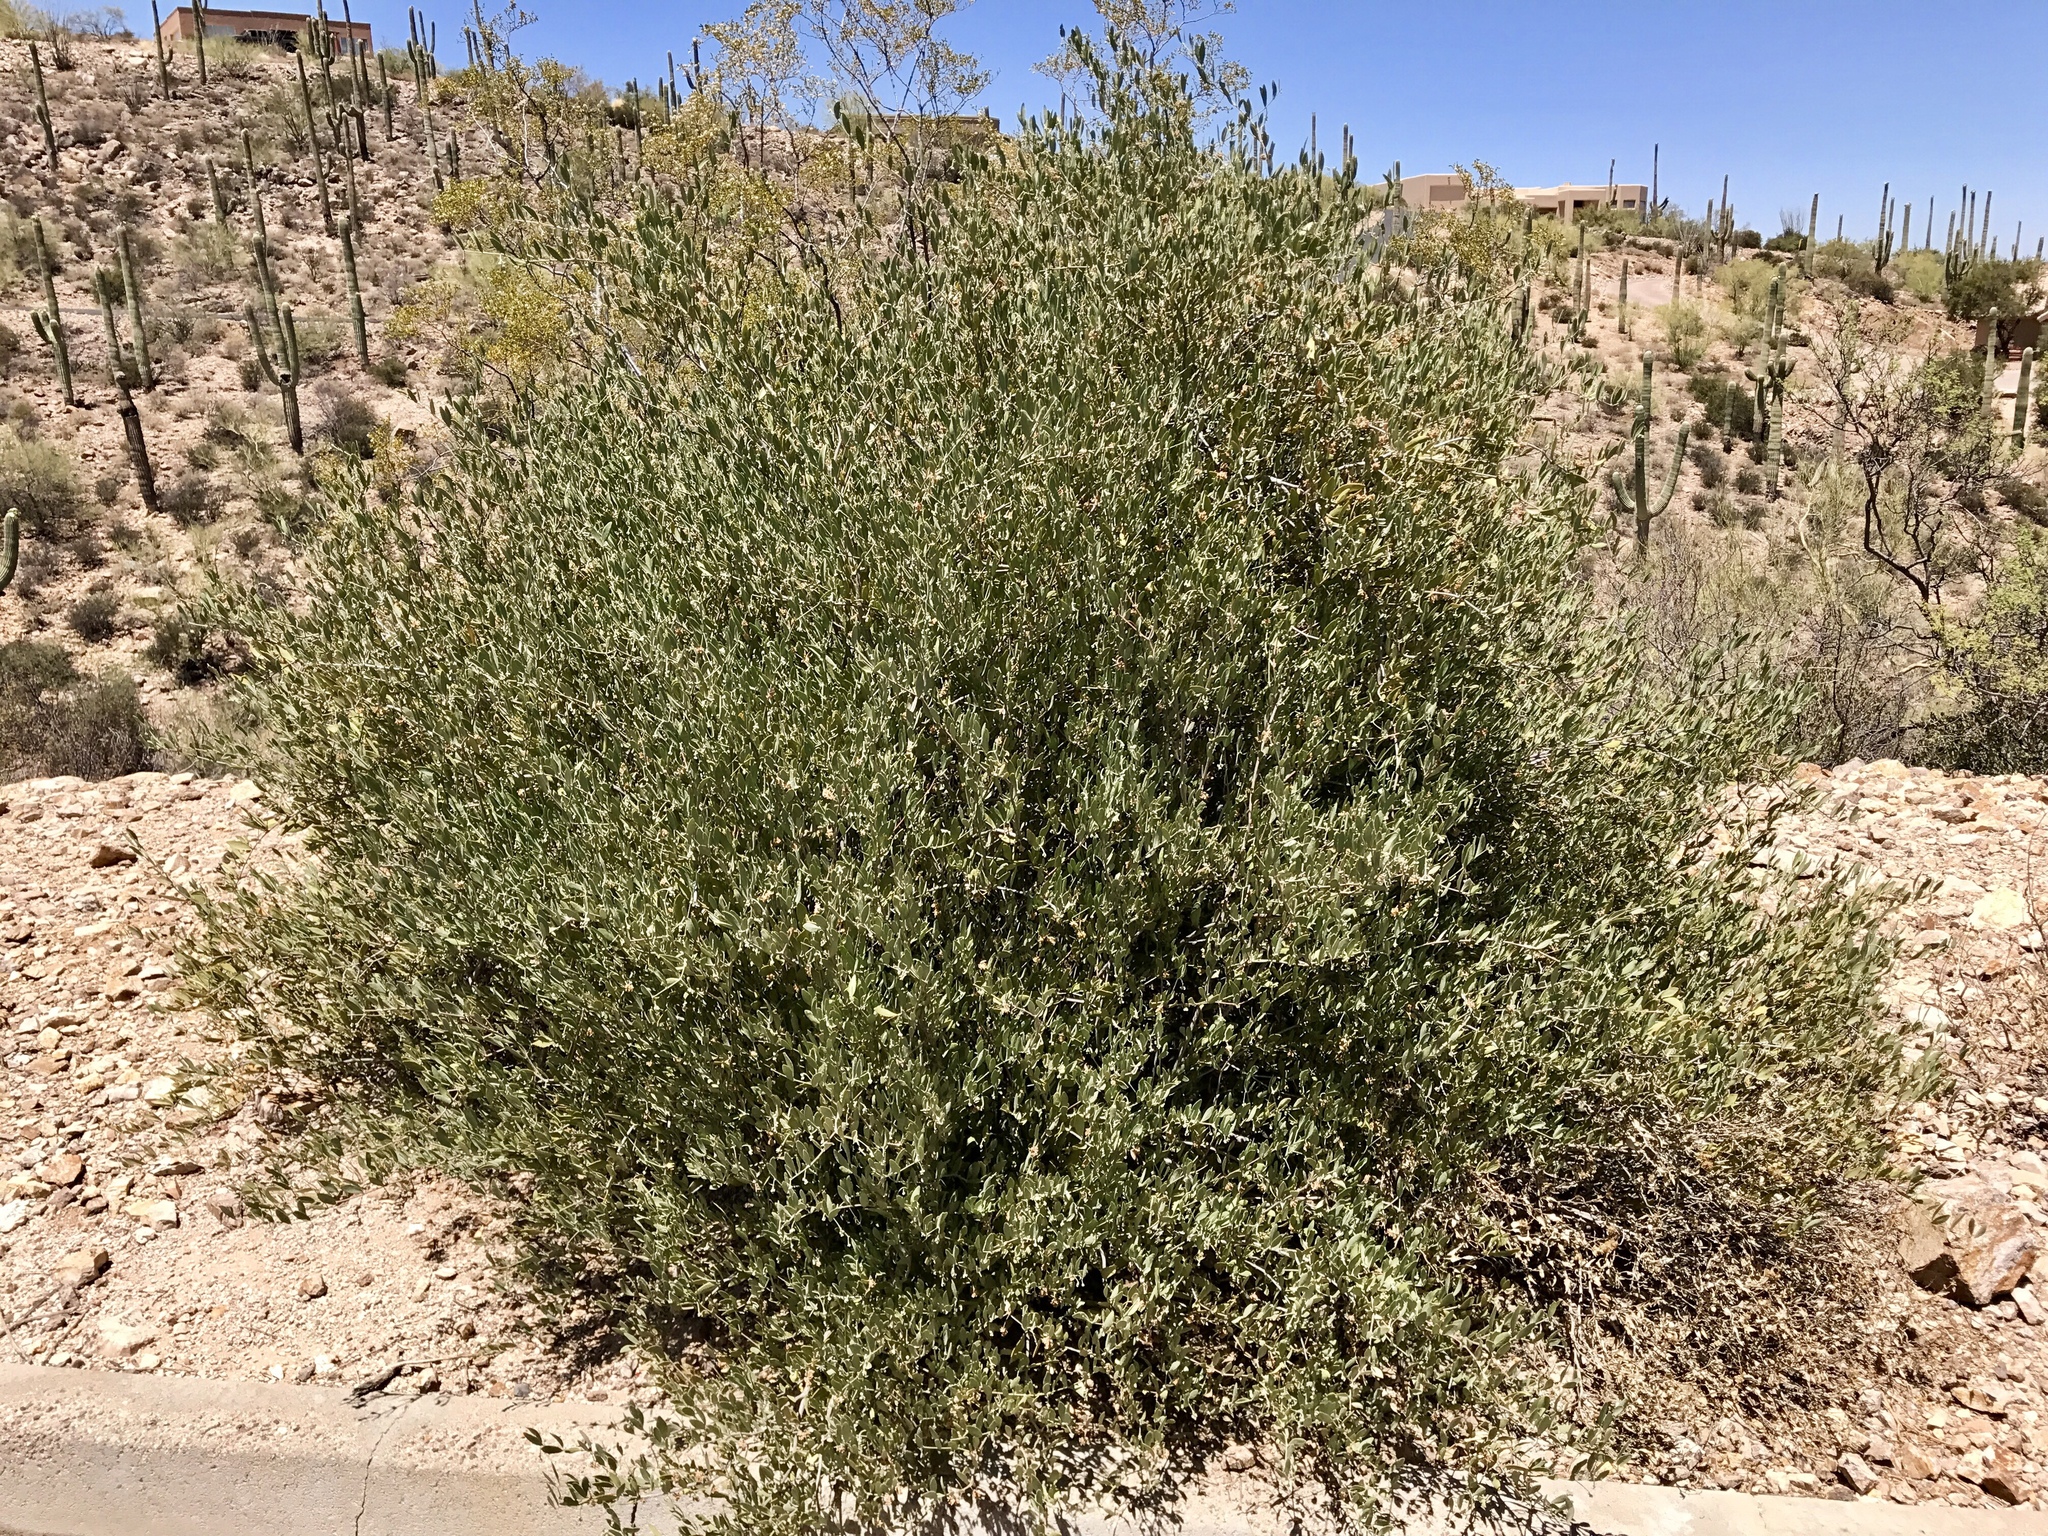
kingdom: Plantae
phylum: Tracheophyta
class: Magnoliopsida
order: Caryophyllales
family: Simmondsiaceae
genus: Simmondsia
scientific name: Simmondsia chinensis
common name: Jojoba
